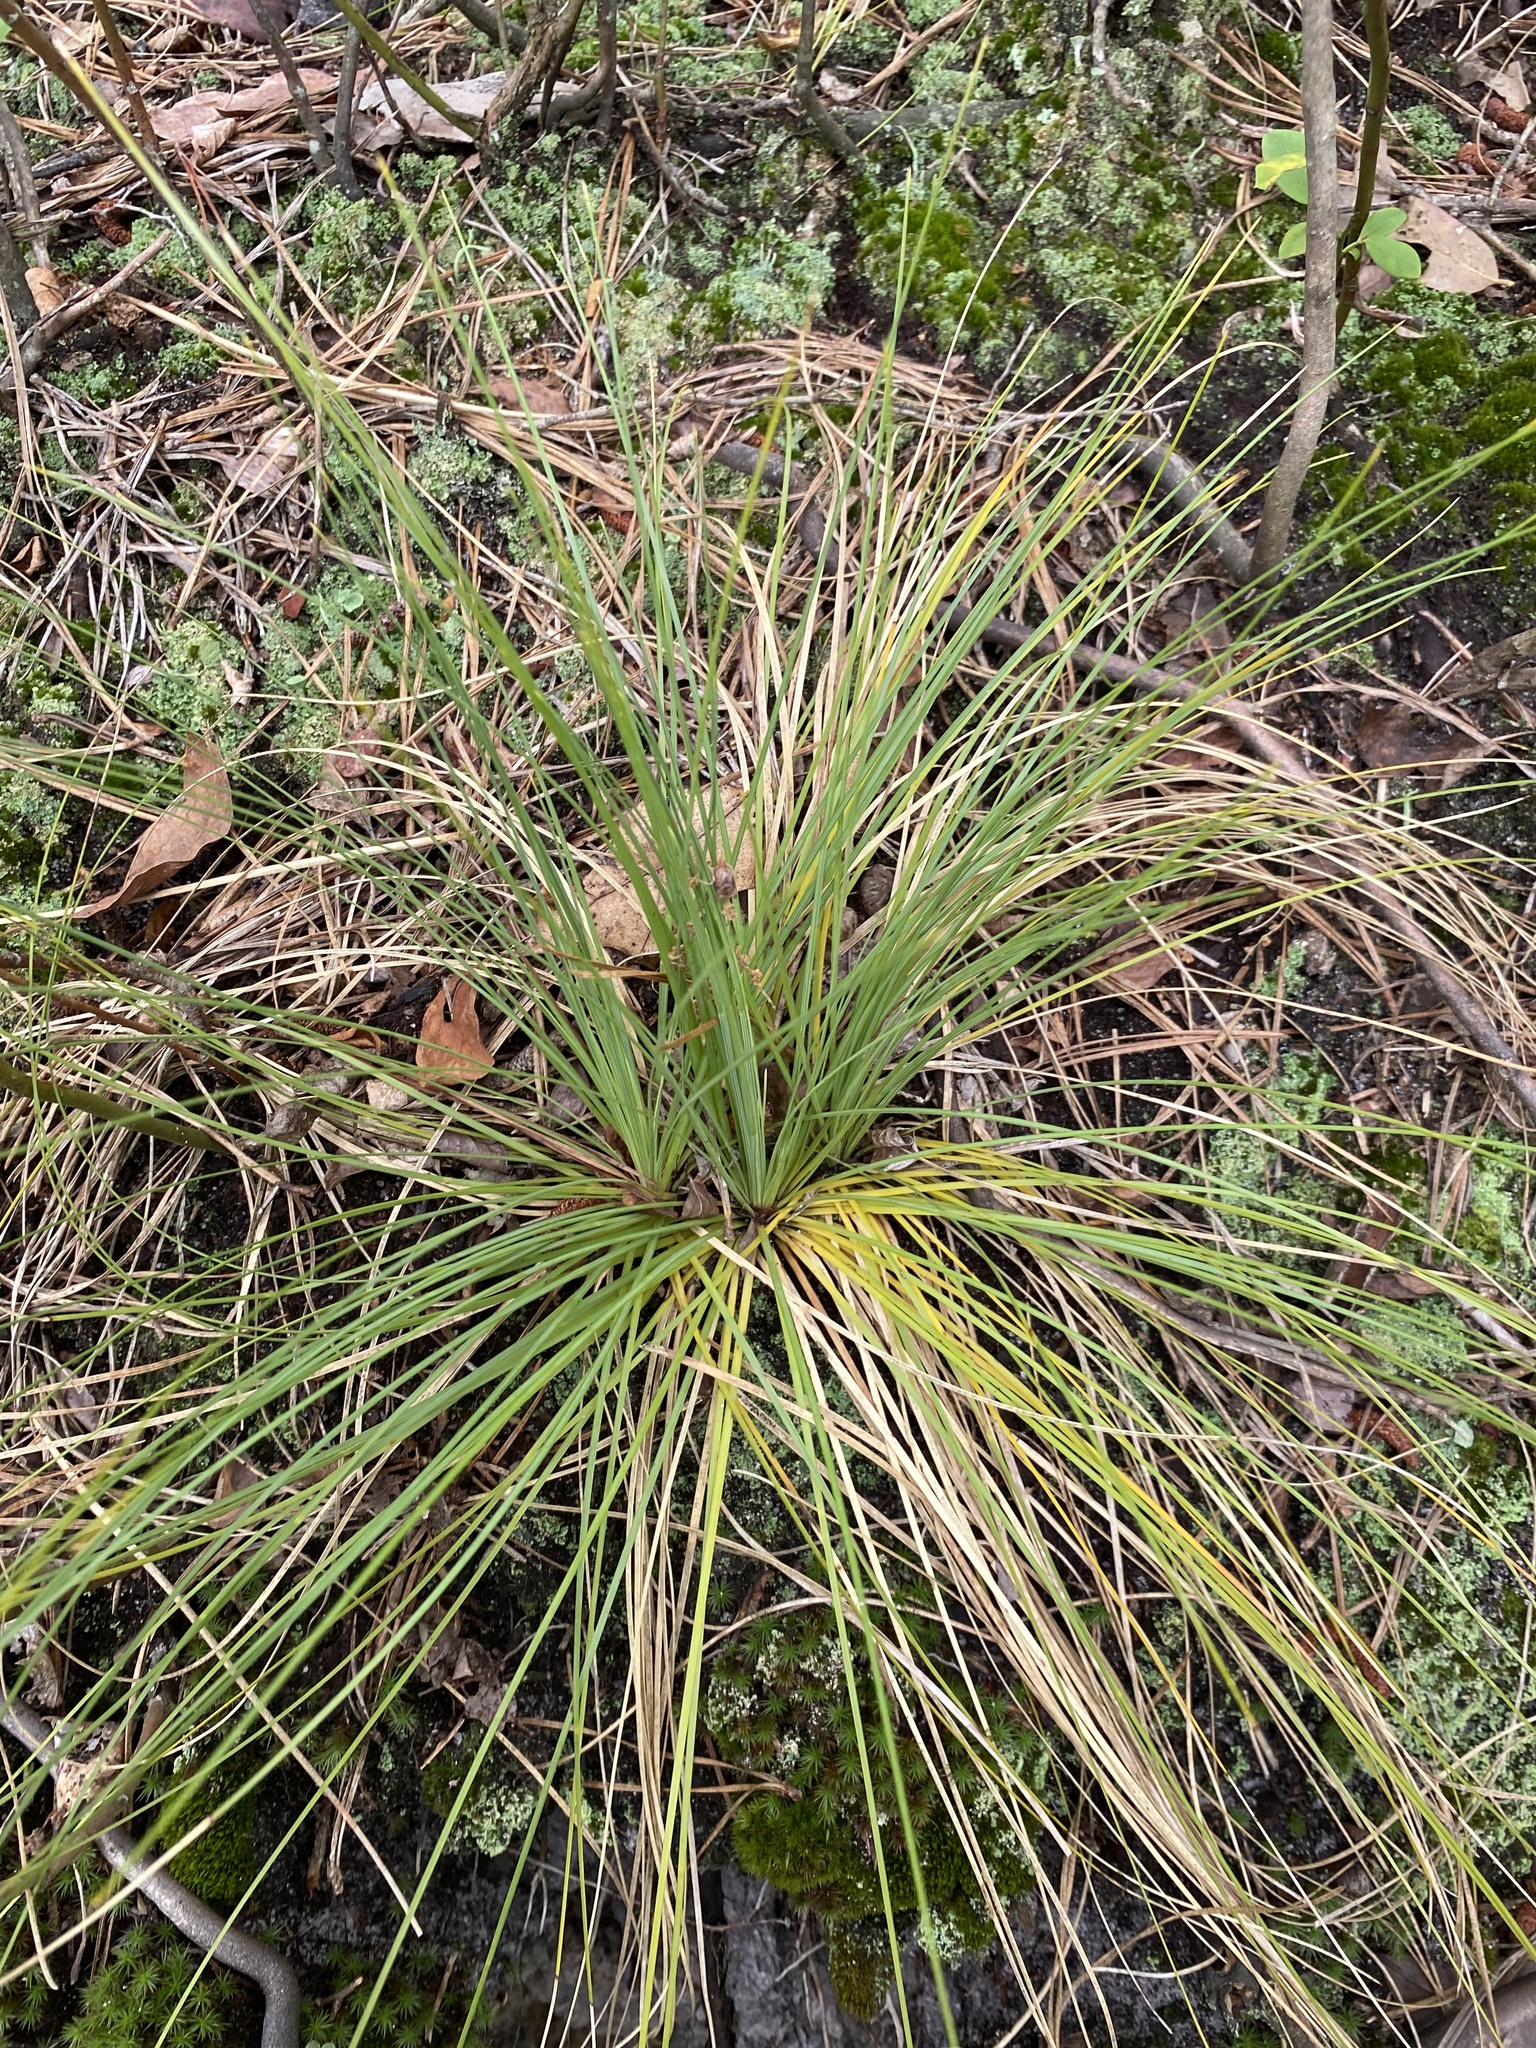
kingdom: Plantae
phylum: Tracheophyta
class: Liliopsida
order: Liliales
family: Melanthiaceae
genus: Xerophyllum
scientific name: Xerophyllum asphodeloides
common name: Mountain-asphodel
